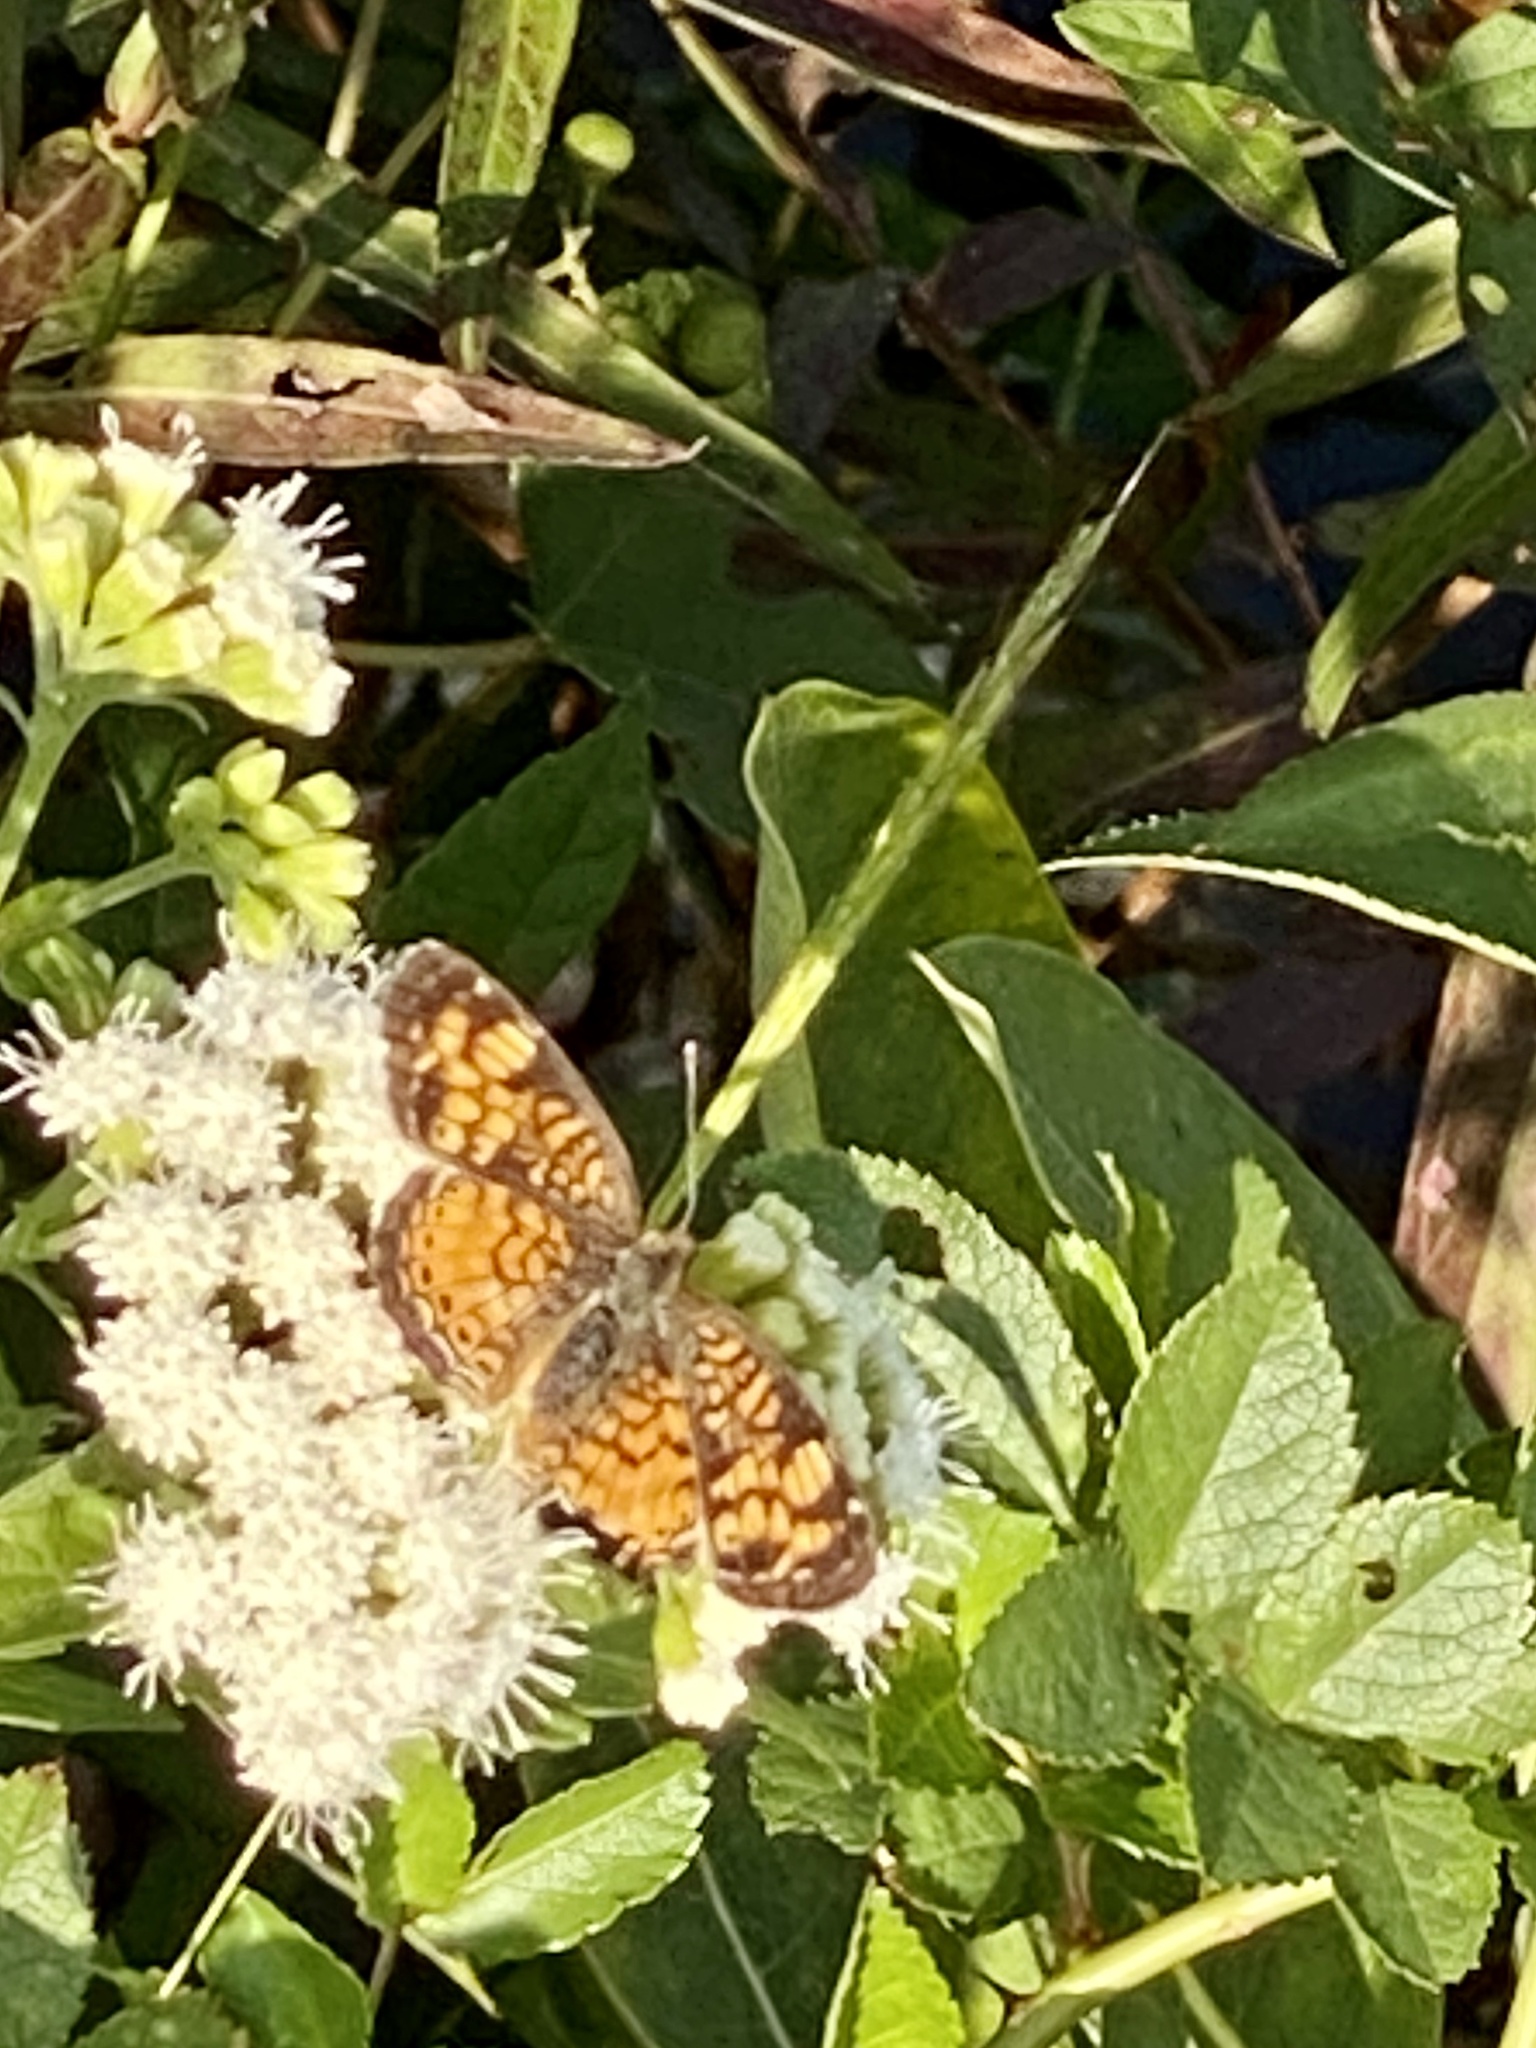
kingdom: Animalia
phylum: Arthropoda
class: Insecta
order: Lepidoptera
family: Nymphalidae
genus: Phyciodes
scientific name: Phyciodes tharos
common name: Pearl crescent
